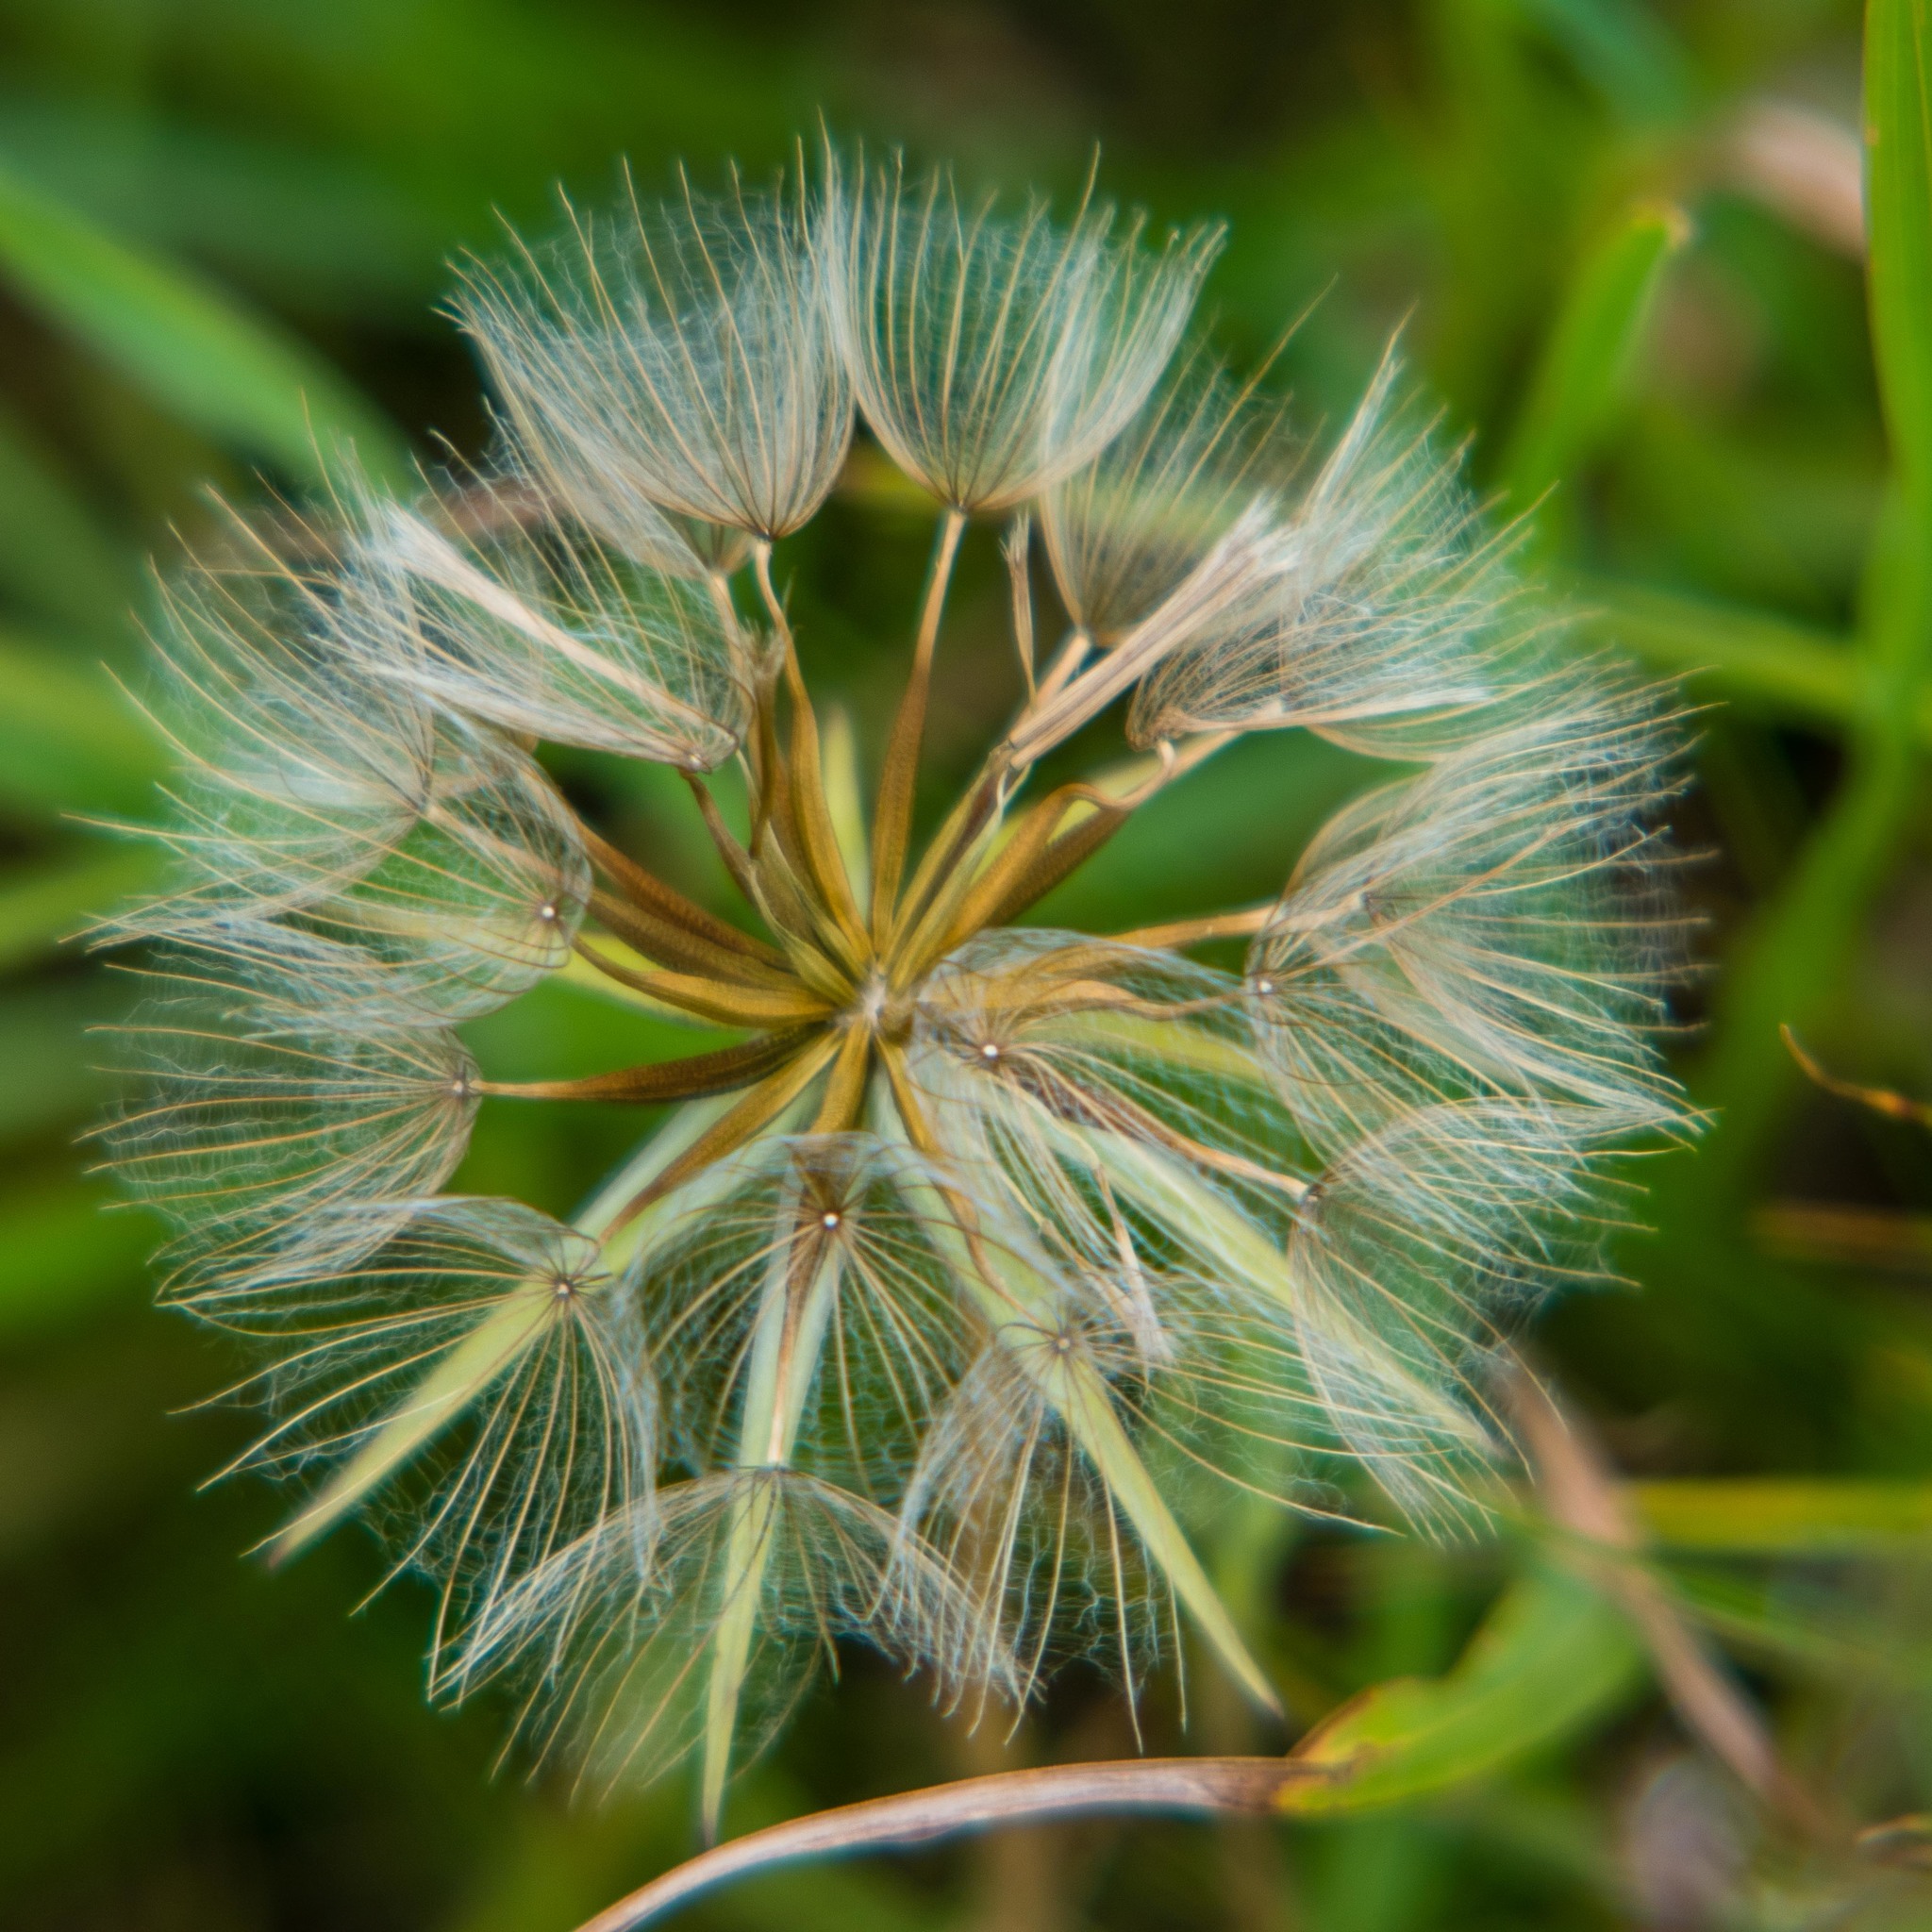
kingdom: Plantae
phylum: Tracheophyta
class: Magnoliopsida
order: Asterales
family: Asteraceae
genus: Tragopogon
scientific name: Tragopogon pratensis
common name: Goat's-beard
